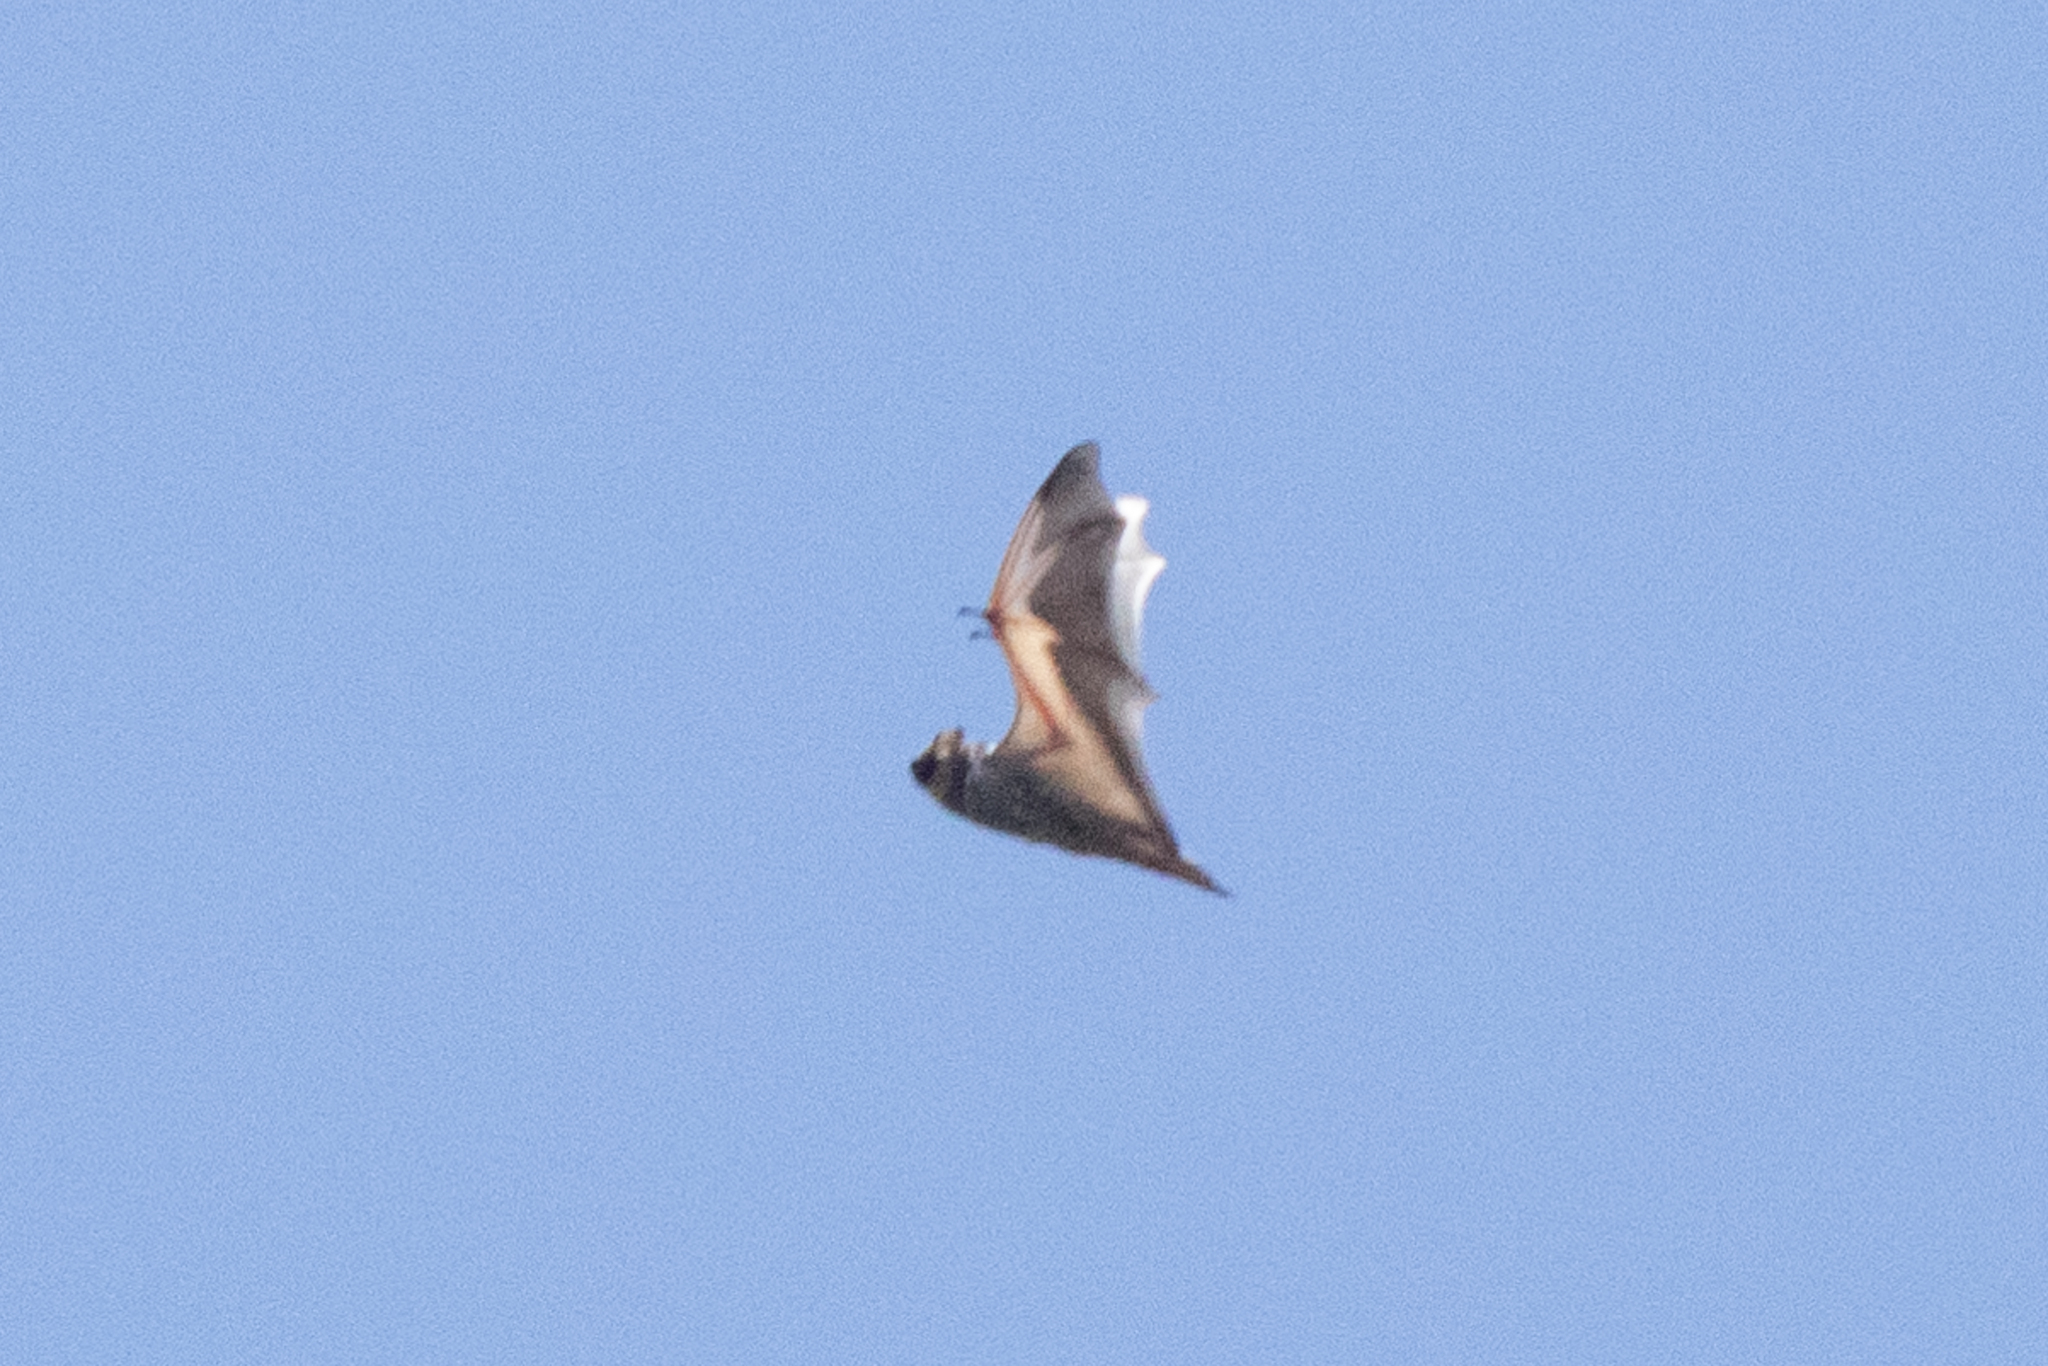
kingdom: Animalia
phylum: Chordata
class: Mammalia
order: Chiroptera
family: Vespertilionidae
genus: Aeorestes
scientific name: Aeorestes cinereus
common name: North american hoary bat
